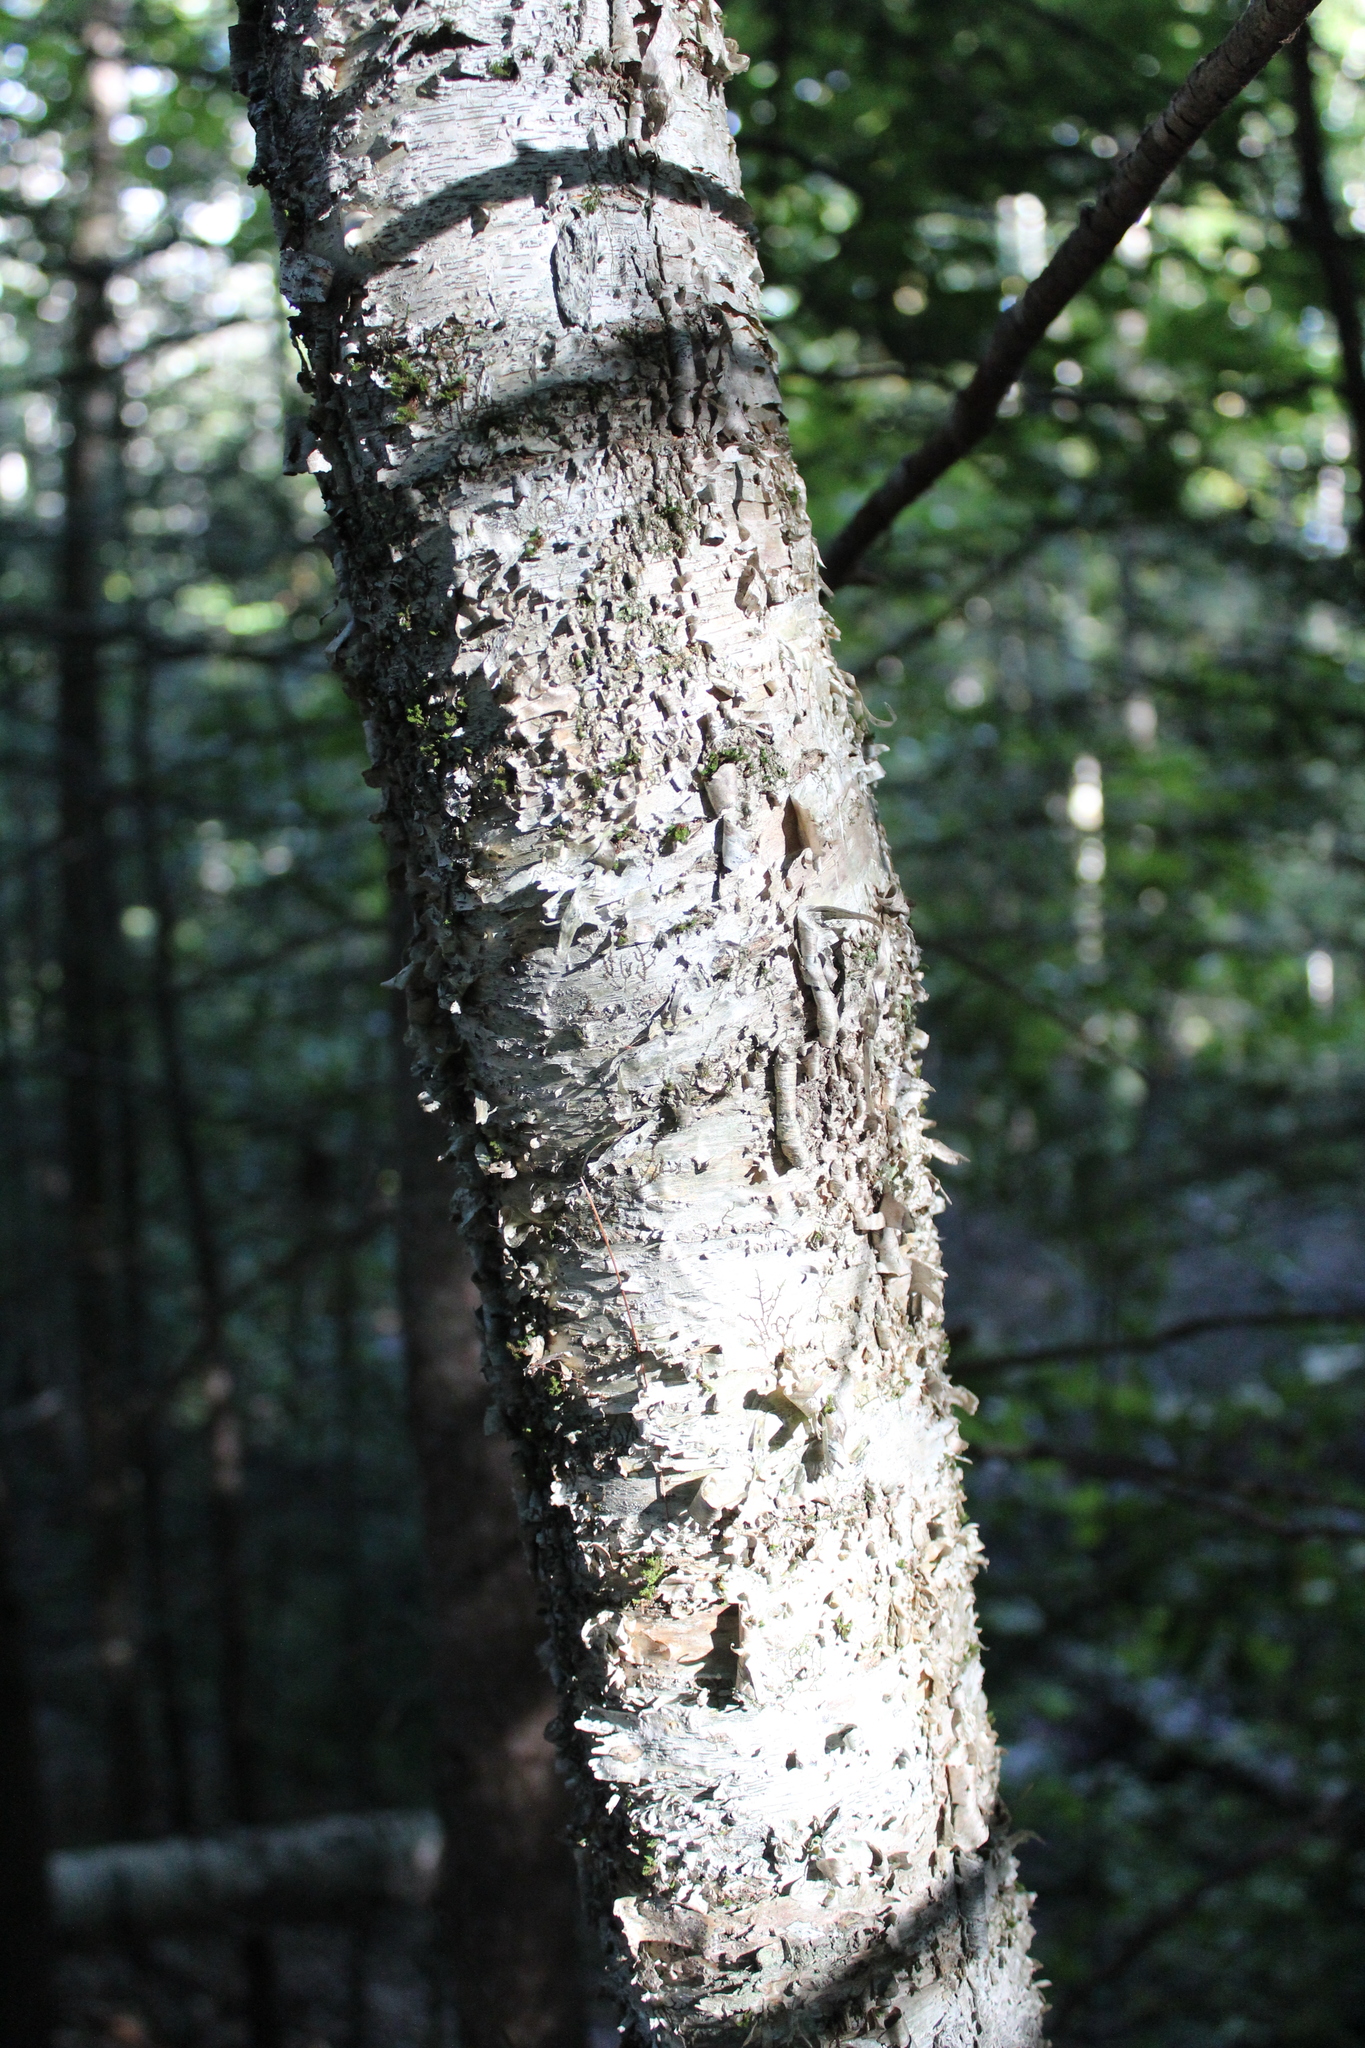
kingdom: Plantae
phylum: Tracheophyta
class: Magnoliopsida
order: Fagales
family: Betulaceae
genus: Betula
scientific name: Betula alleghaniensis
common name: Yellow birch
